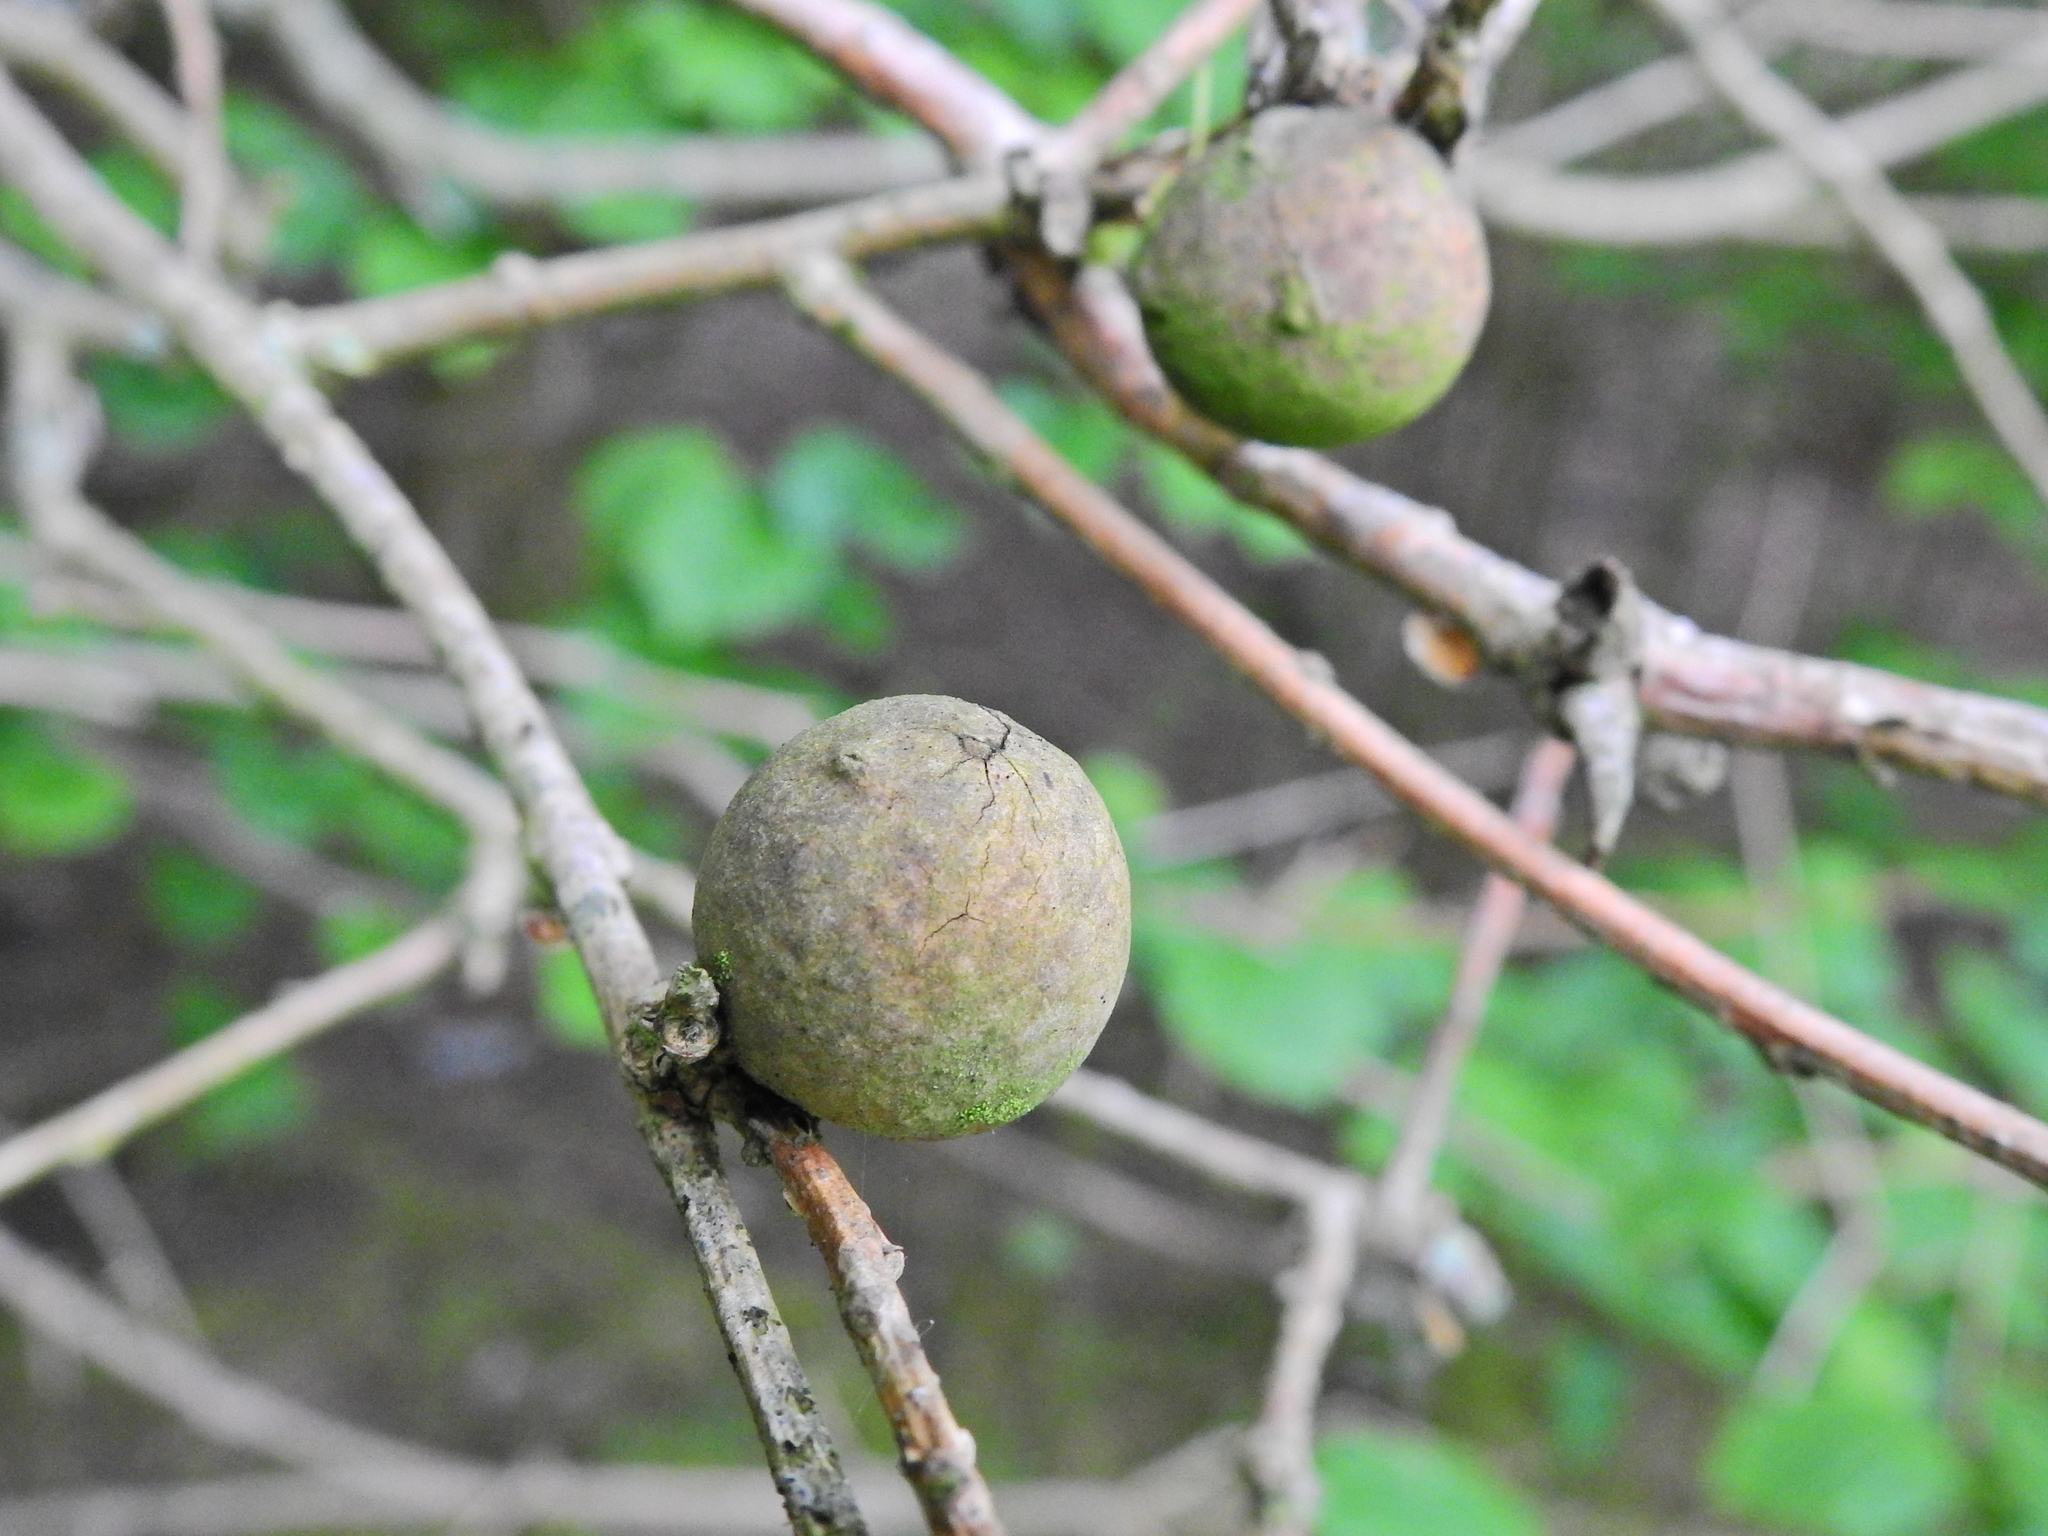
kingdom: Animalia
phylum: Arthropoda
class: Insecta
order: Hymenoptera
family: Cynipidae
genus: Andricus
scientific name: Andricus kollari
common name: Marble gall
